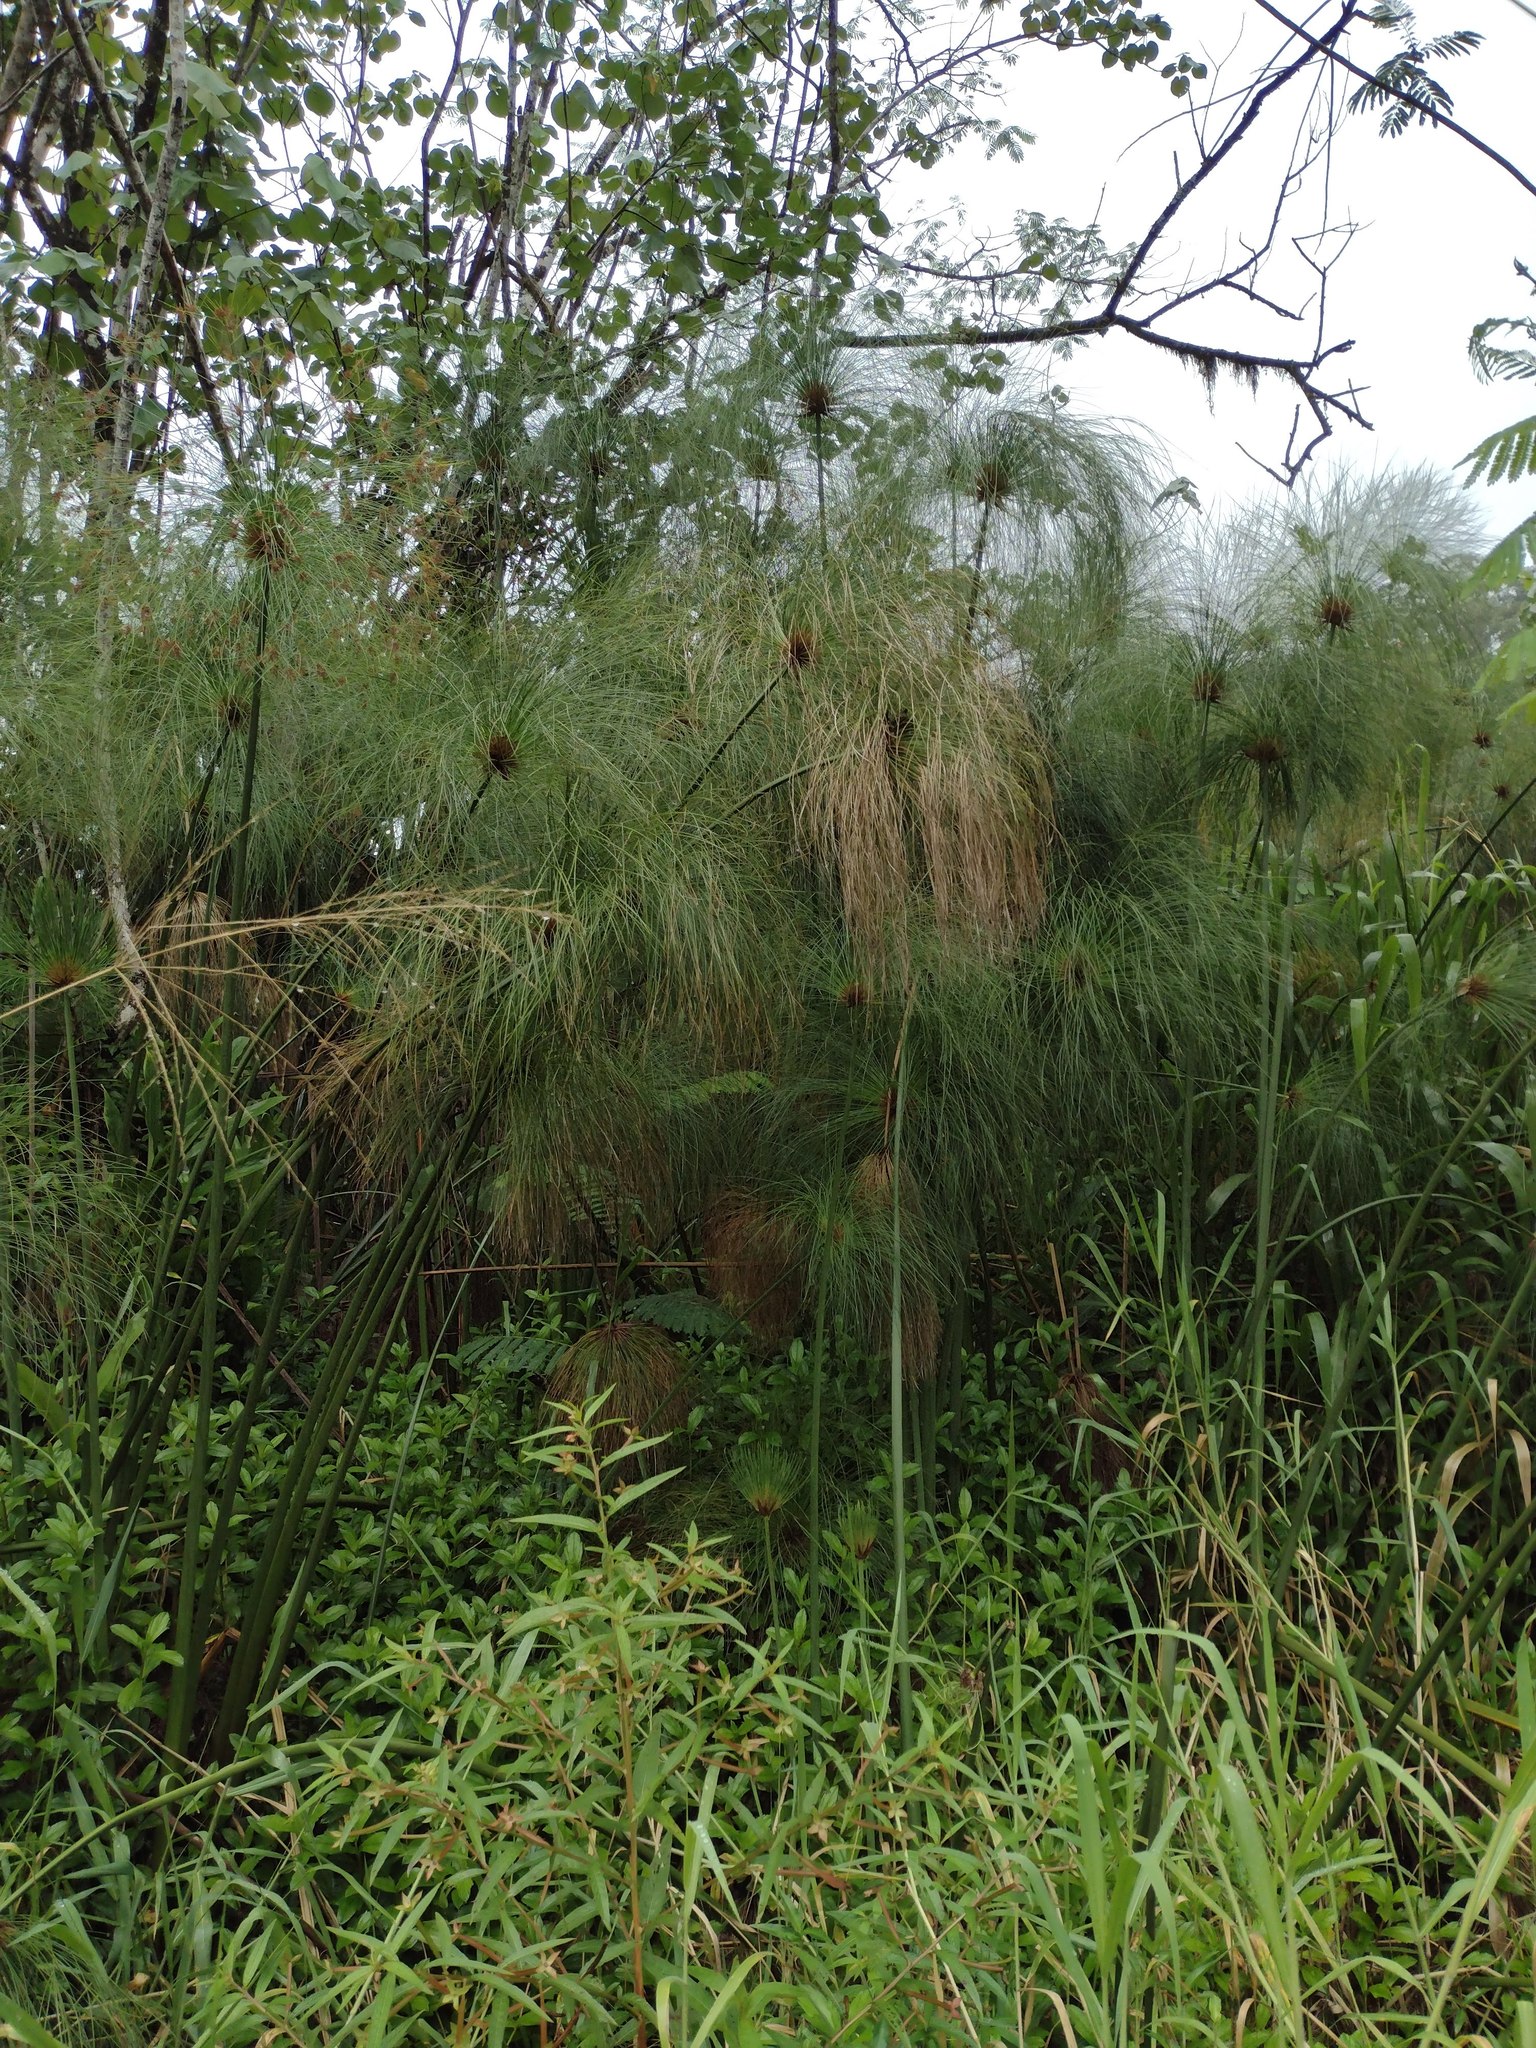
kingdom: Plantae
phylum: Tracheophyta
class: Liliopsida
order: Poales
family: Cyperaceae
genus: Cyperus
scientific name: Cyperus papyrus
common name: Papyrus
